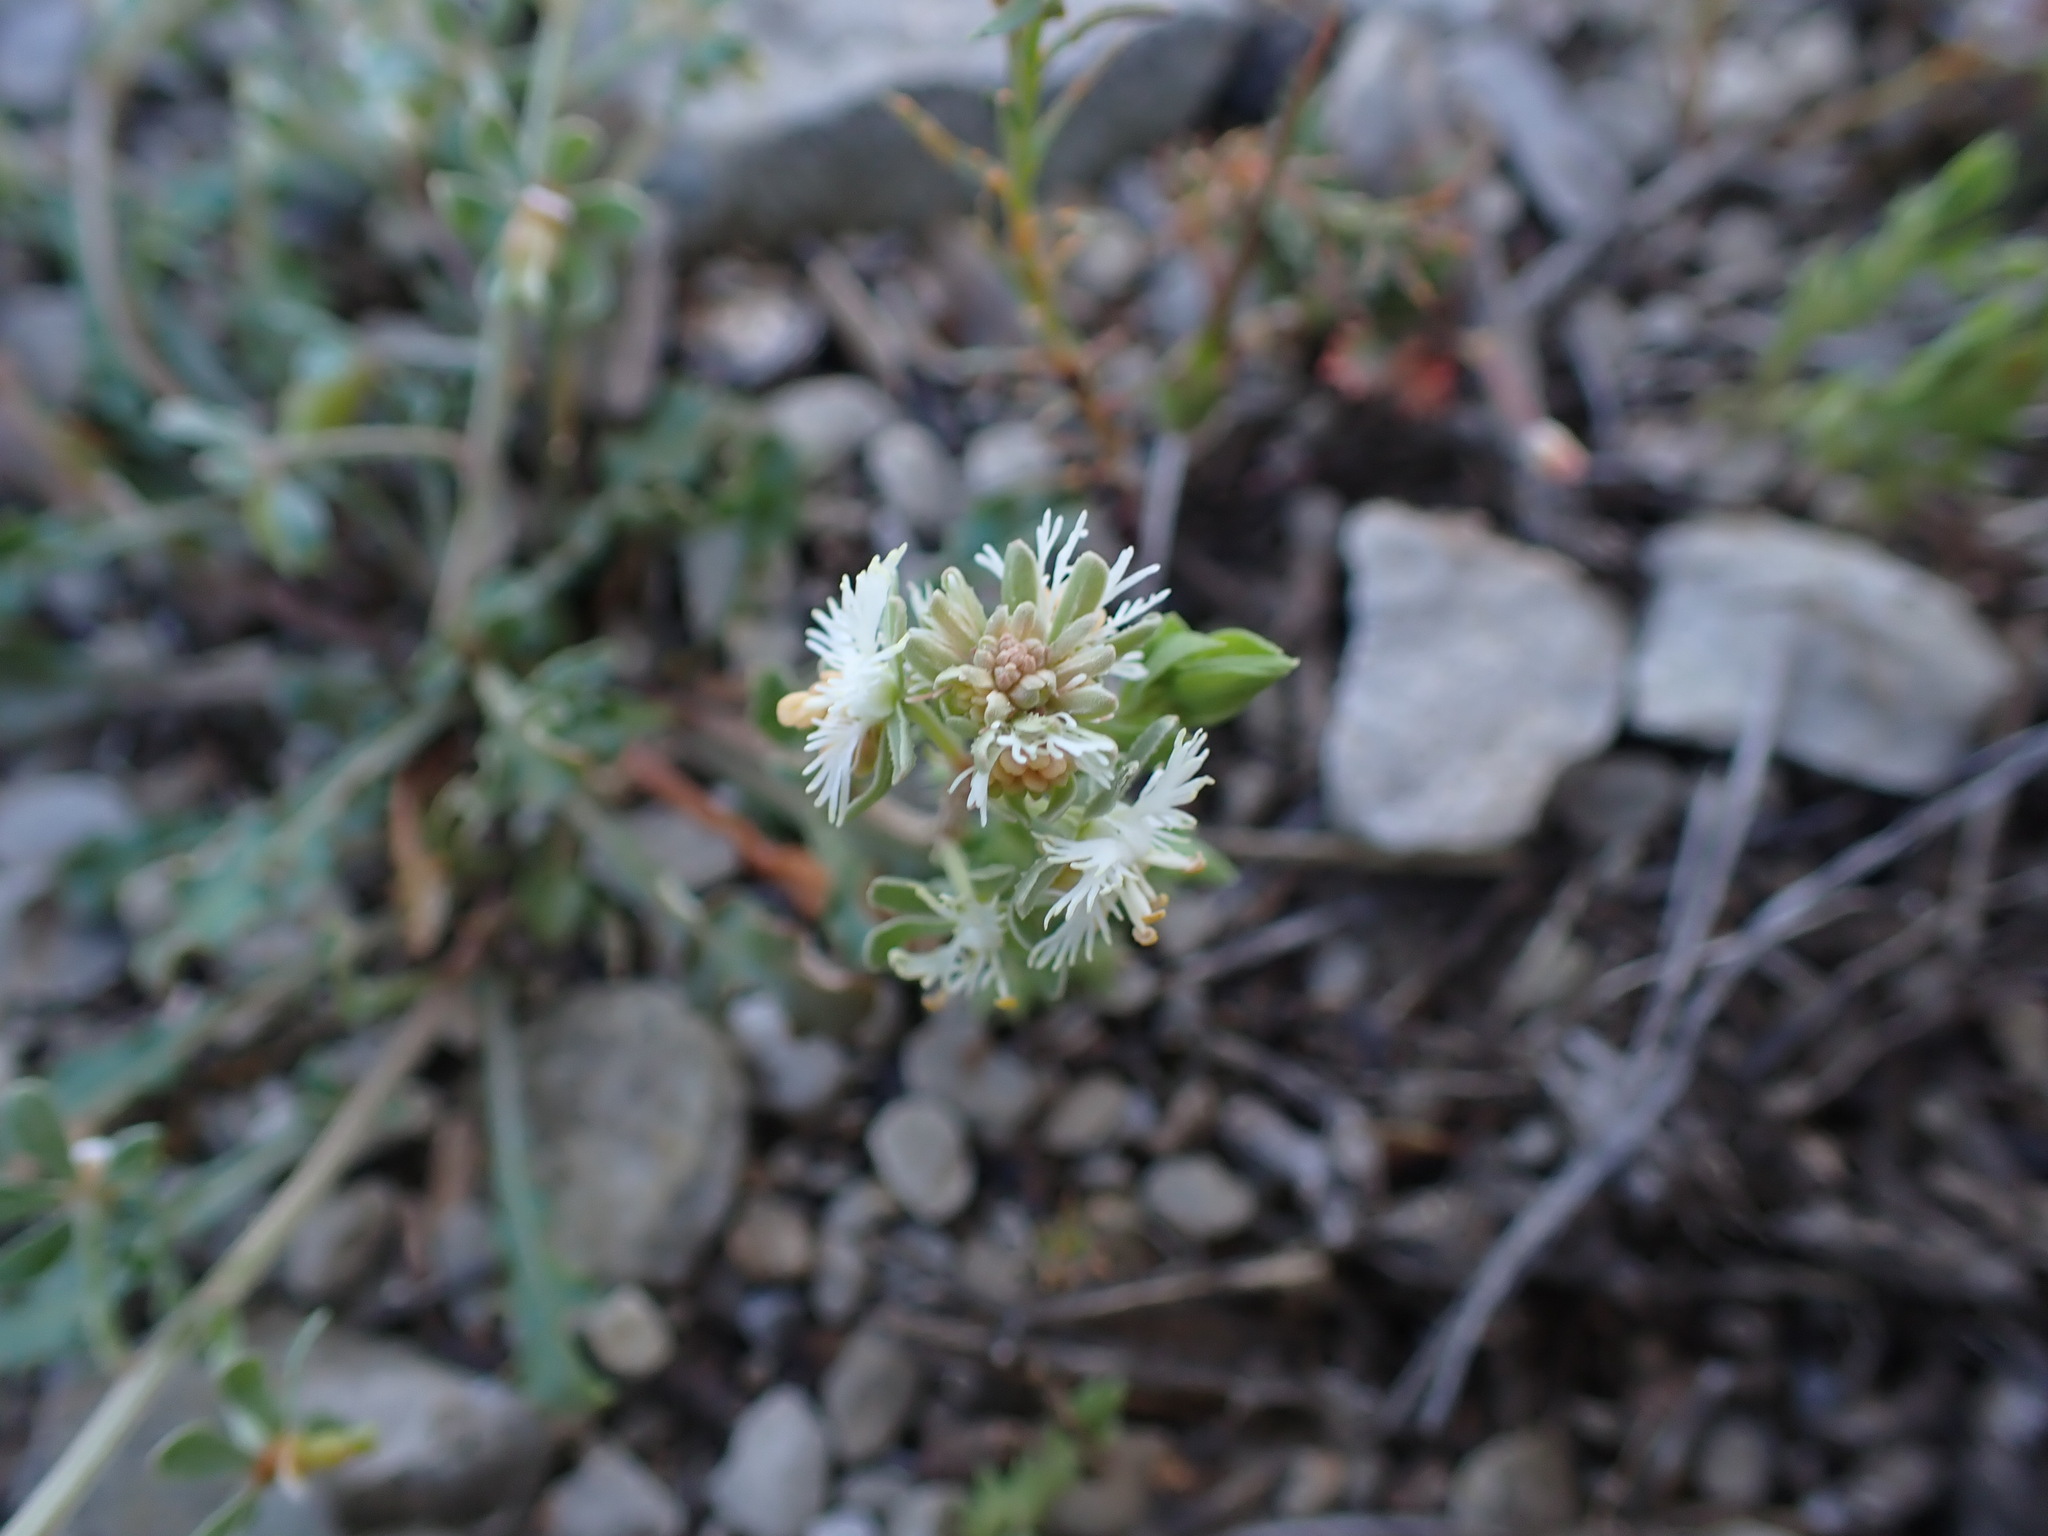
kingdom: Plantae
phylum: Tracheophyta
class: Magnoliopsida
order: Brassicales
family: Resedaceae
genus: Reseda
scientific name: Reseda phyteuma
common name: Corn mignonette
